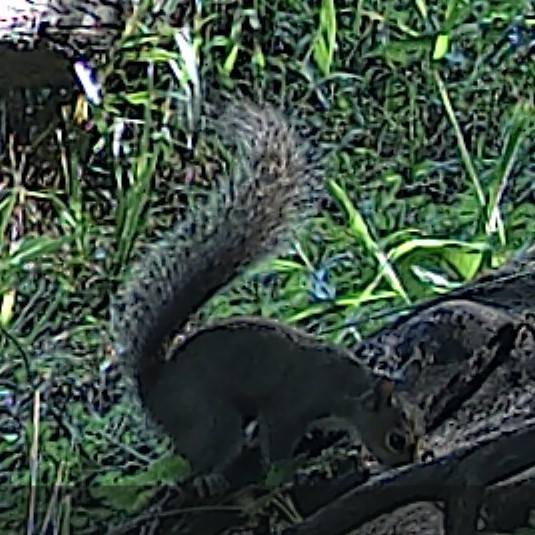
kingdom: Animalia
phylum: Chordata
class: Mammalia
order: Rodentia
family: Sciuridae
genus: Sciurus
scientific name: Sciurus carolinensis
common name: Eastern gray squirrel
